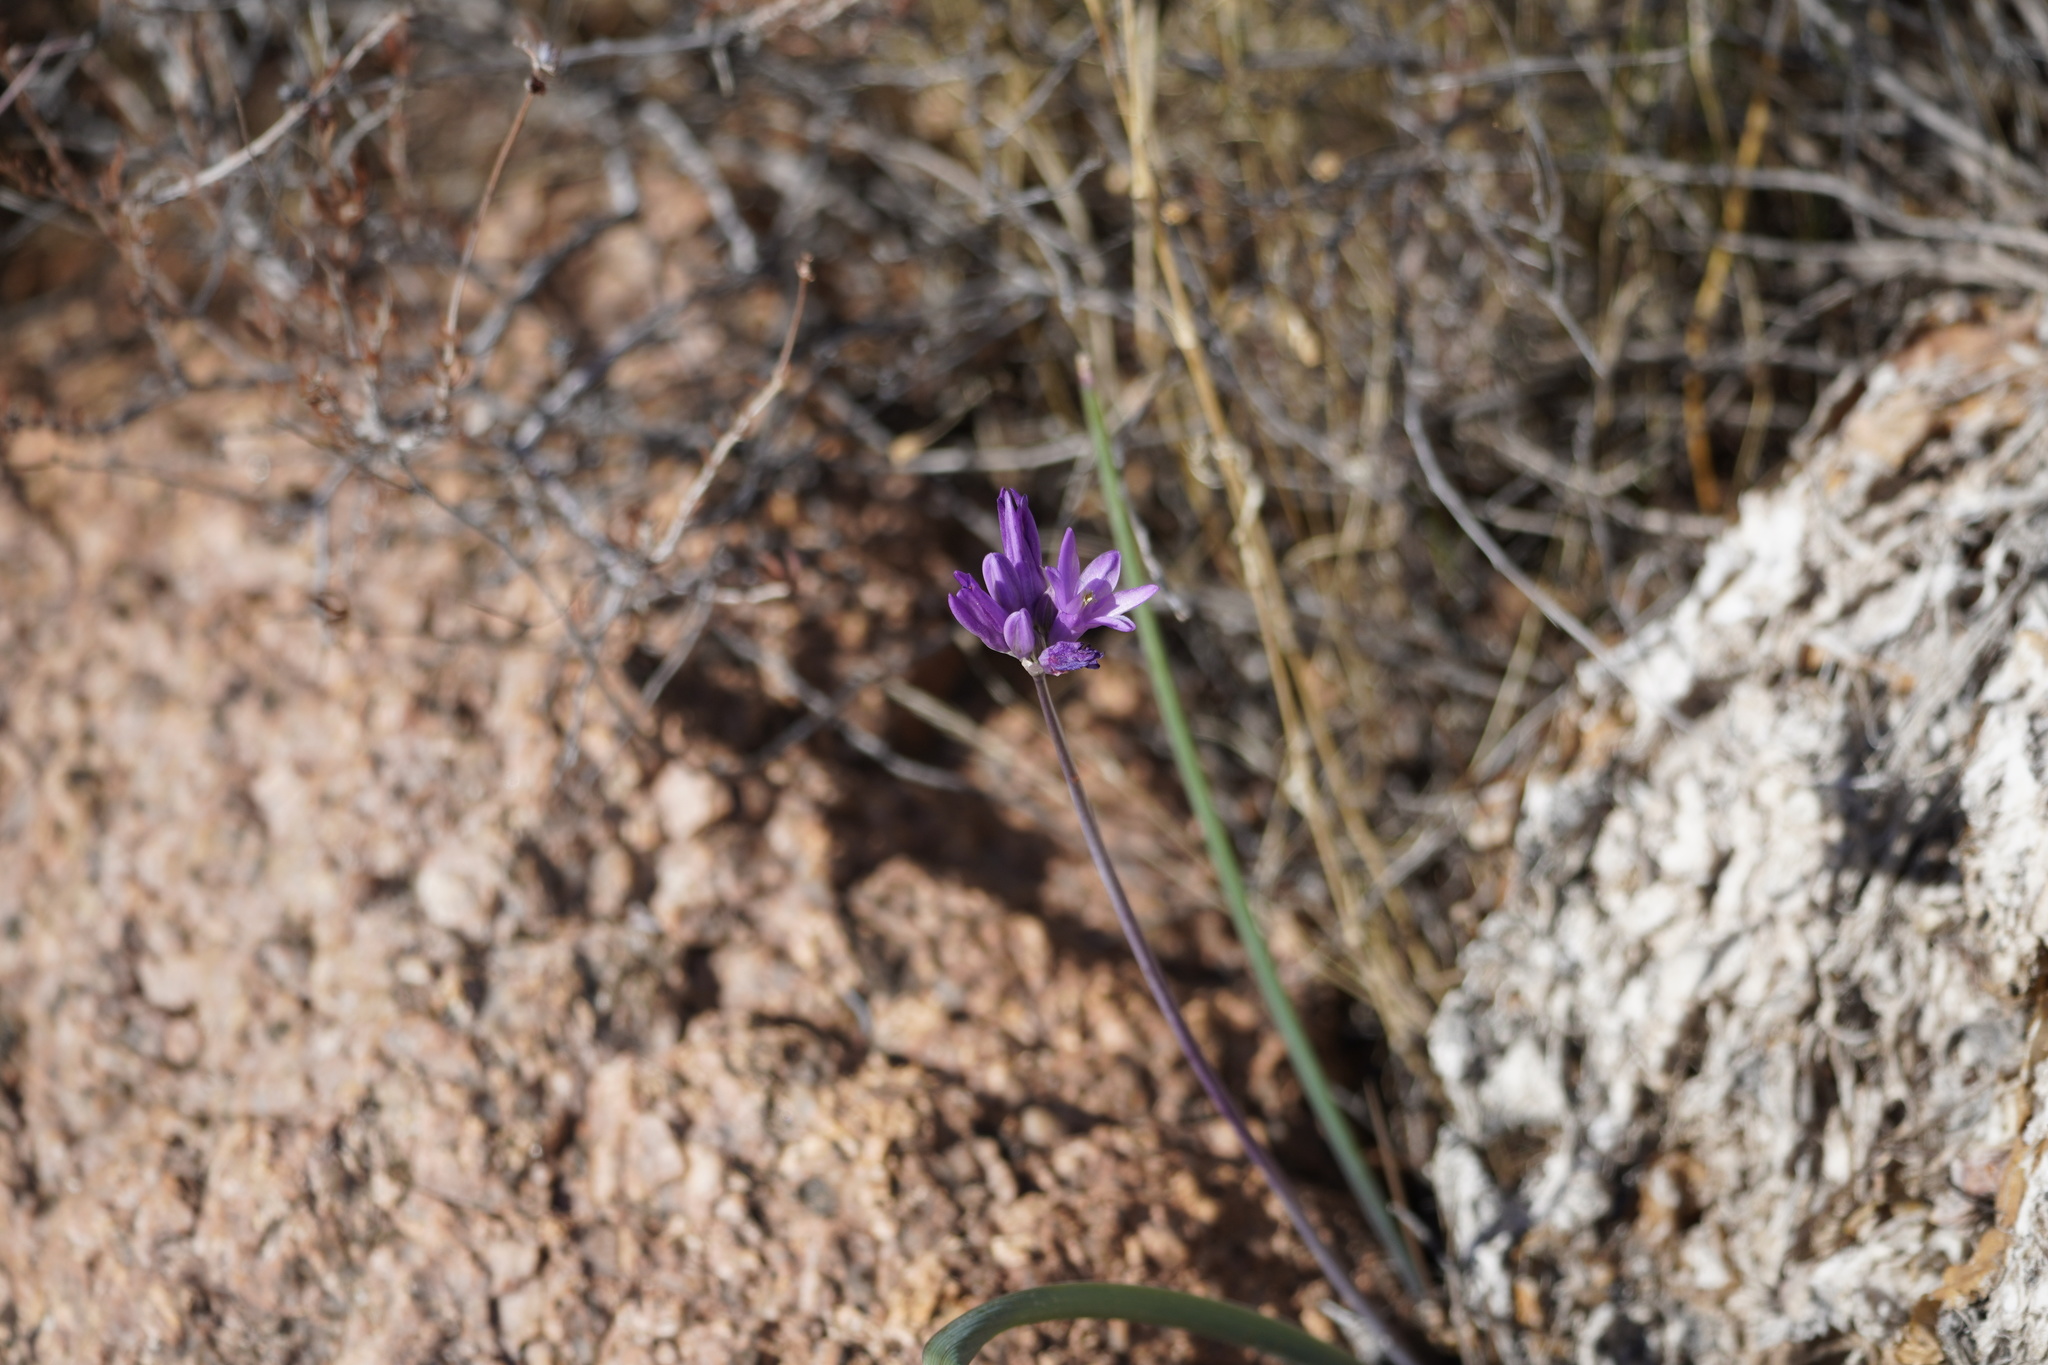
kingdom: Plantae
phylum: Tracheophyta
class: Liliopsida
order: Asparagales
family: Asparagaceae
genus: Dipterostemon
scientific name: Dipterostemon capitatus
